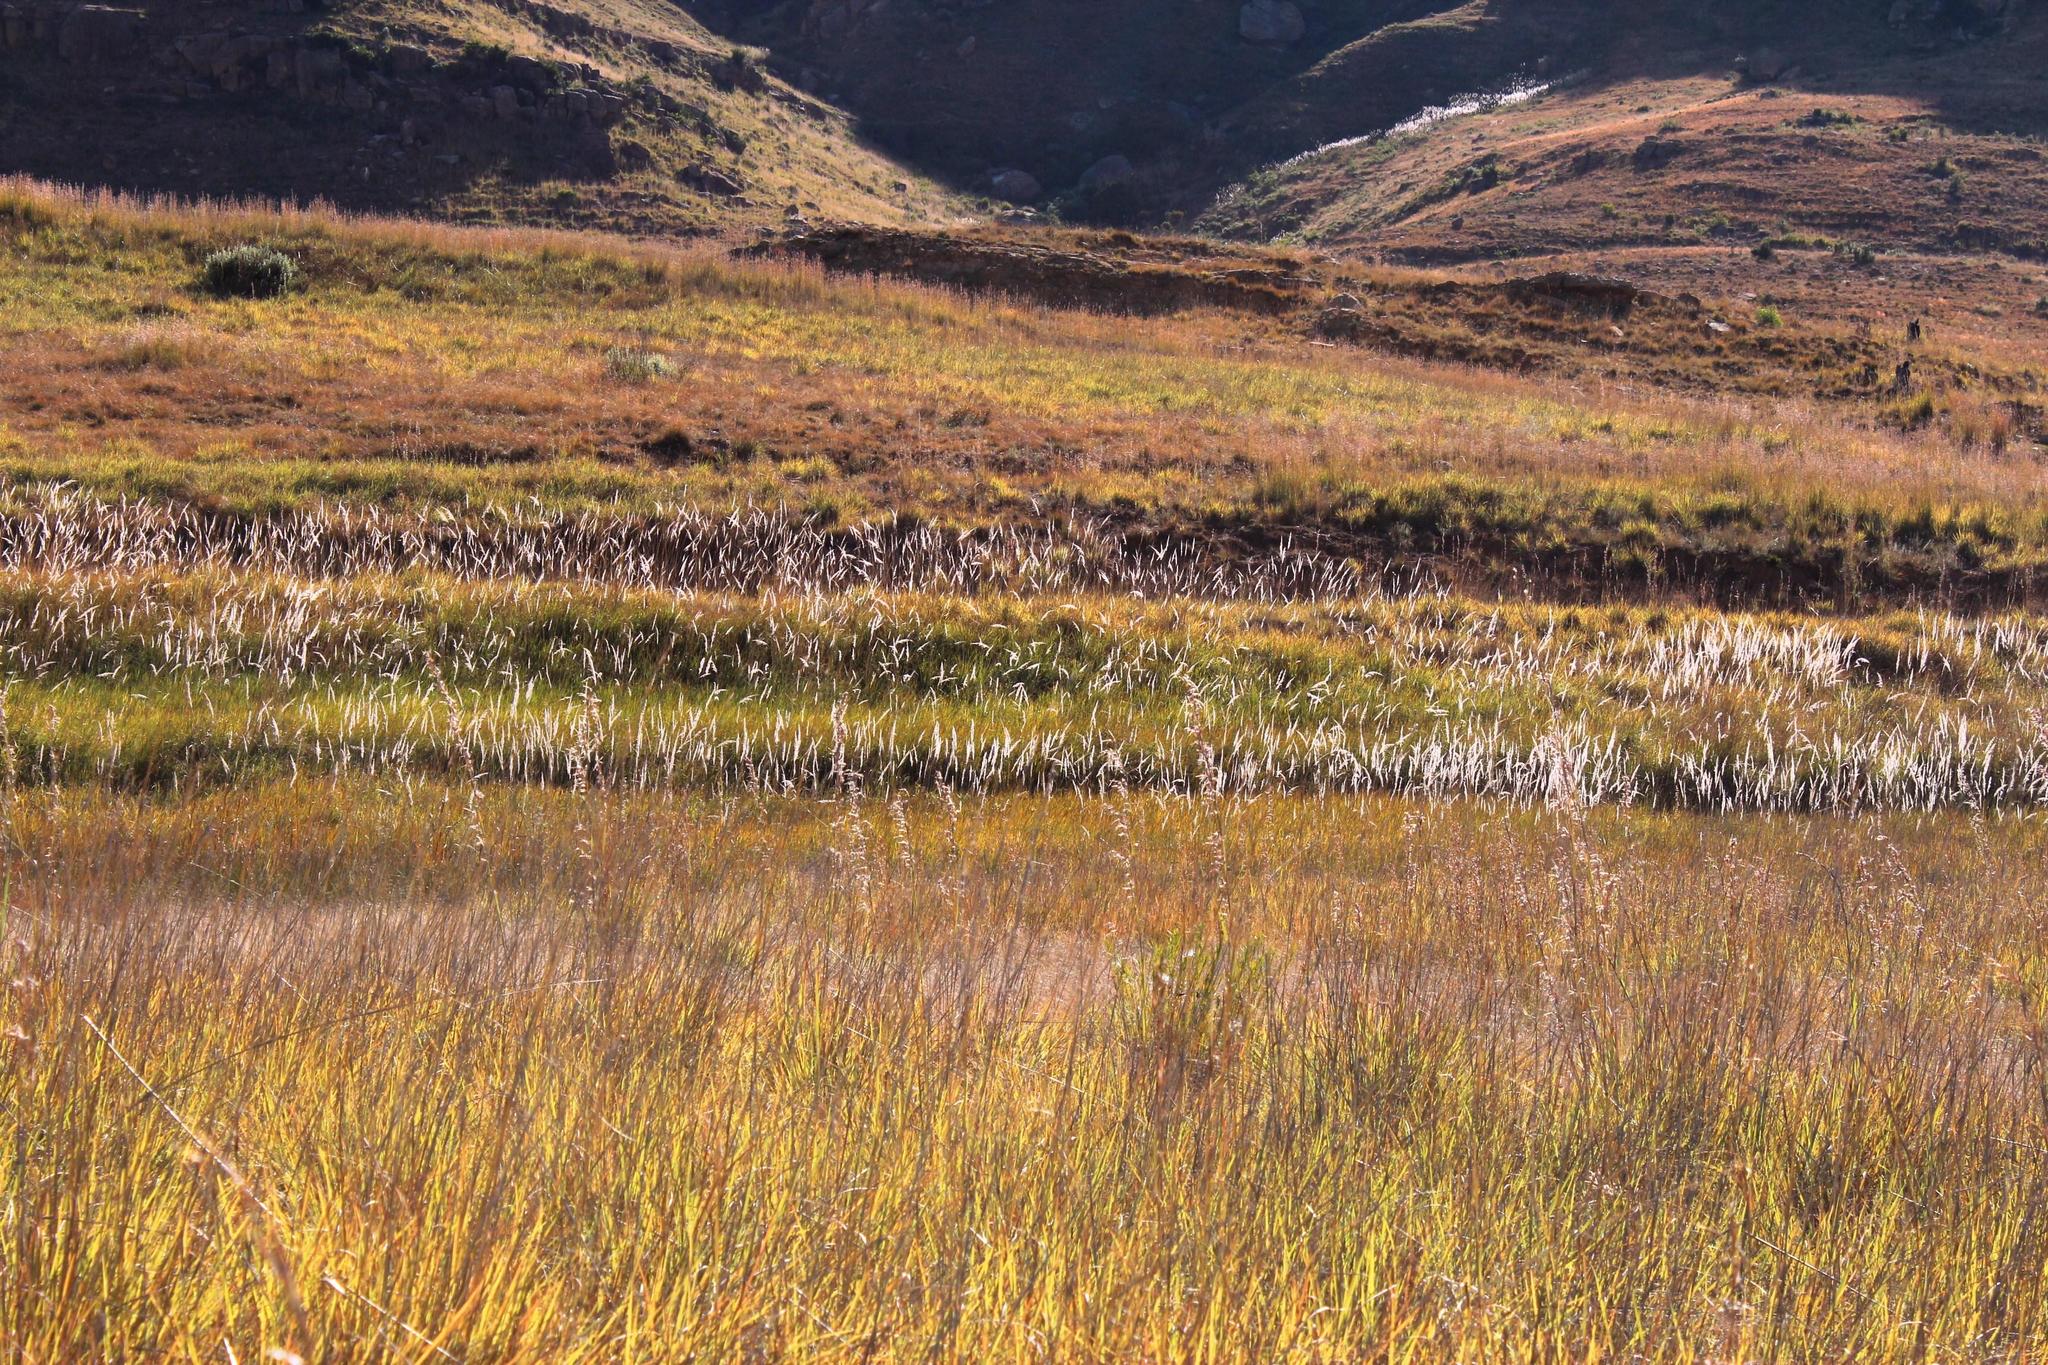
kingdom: Plantae
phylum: Tracheophyta
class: Liliopsida
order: Poales
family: Poaceae
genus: Miscanthus
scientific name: Miscanthus ecklonii
